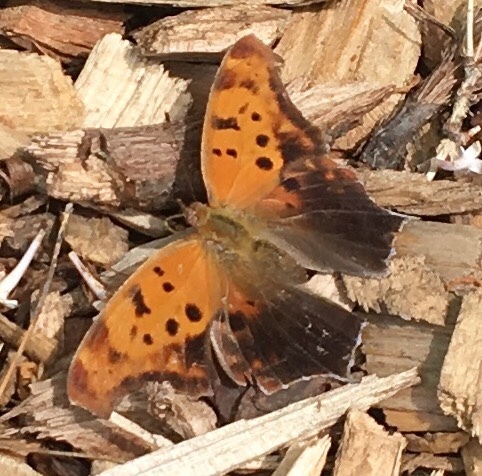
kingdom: Animalia
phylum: Arthropoda
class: Insecta
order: Lepidoptera
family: Nymphalidae
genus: Polygonia
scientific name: Polygonia interrogationis
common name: Question mark
